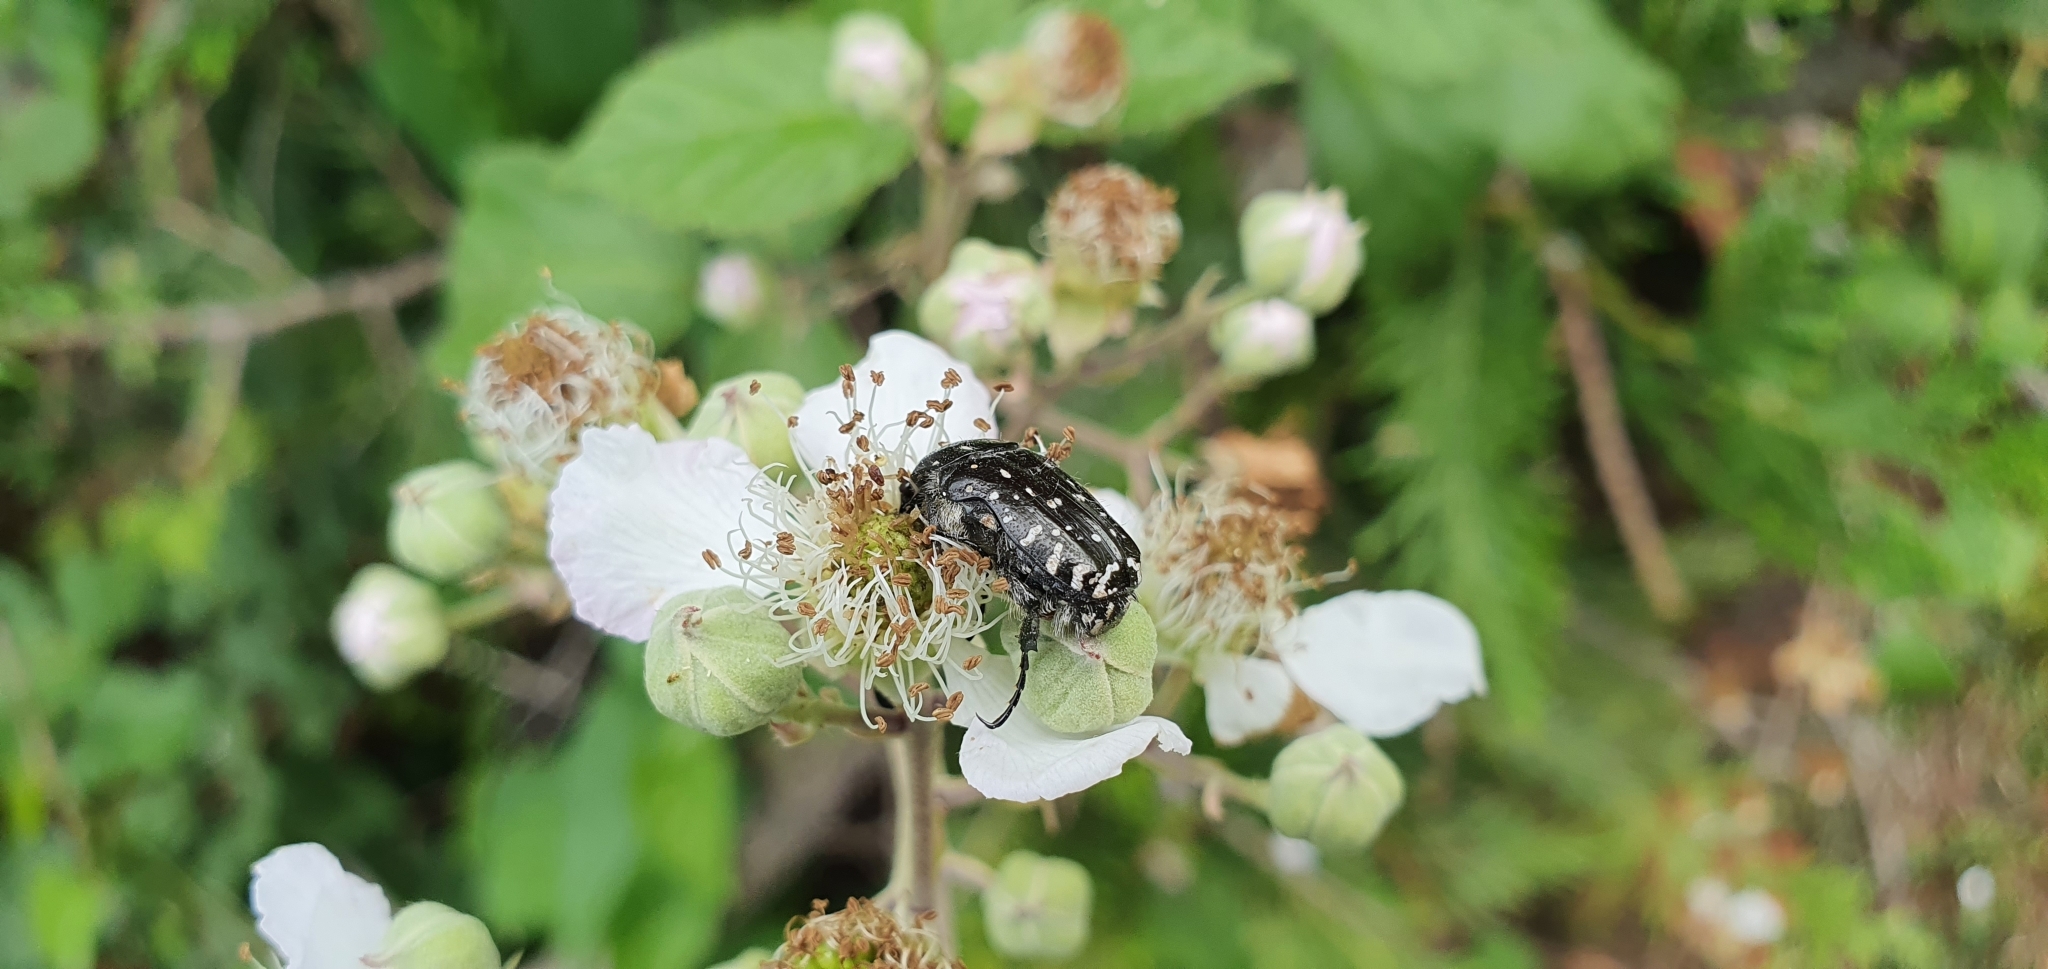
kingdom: Animalia
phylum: Arthropoda
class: Insecta
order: Coleoptera
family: Scarabaeidae
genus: Oxythyrea
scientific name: Oxythyrea funesta
